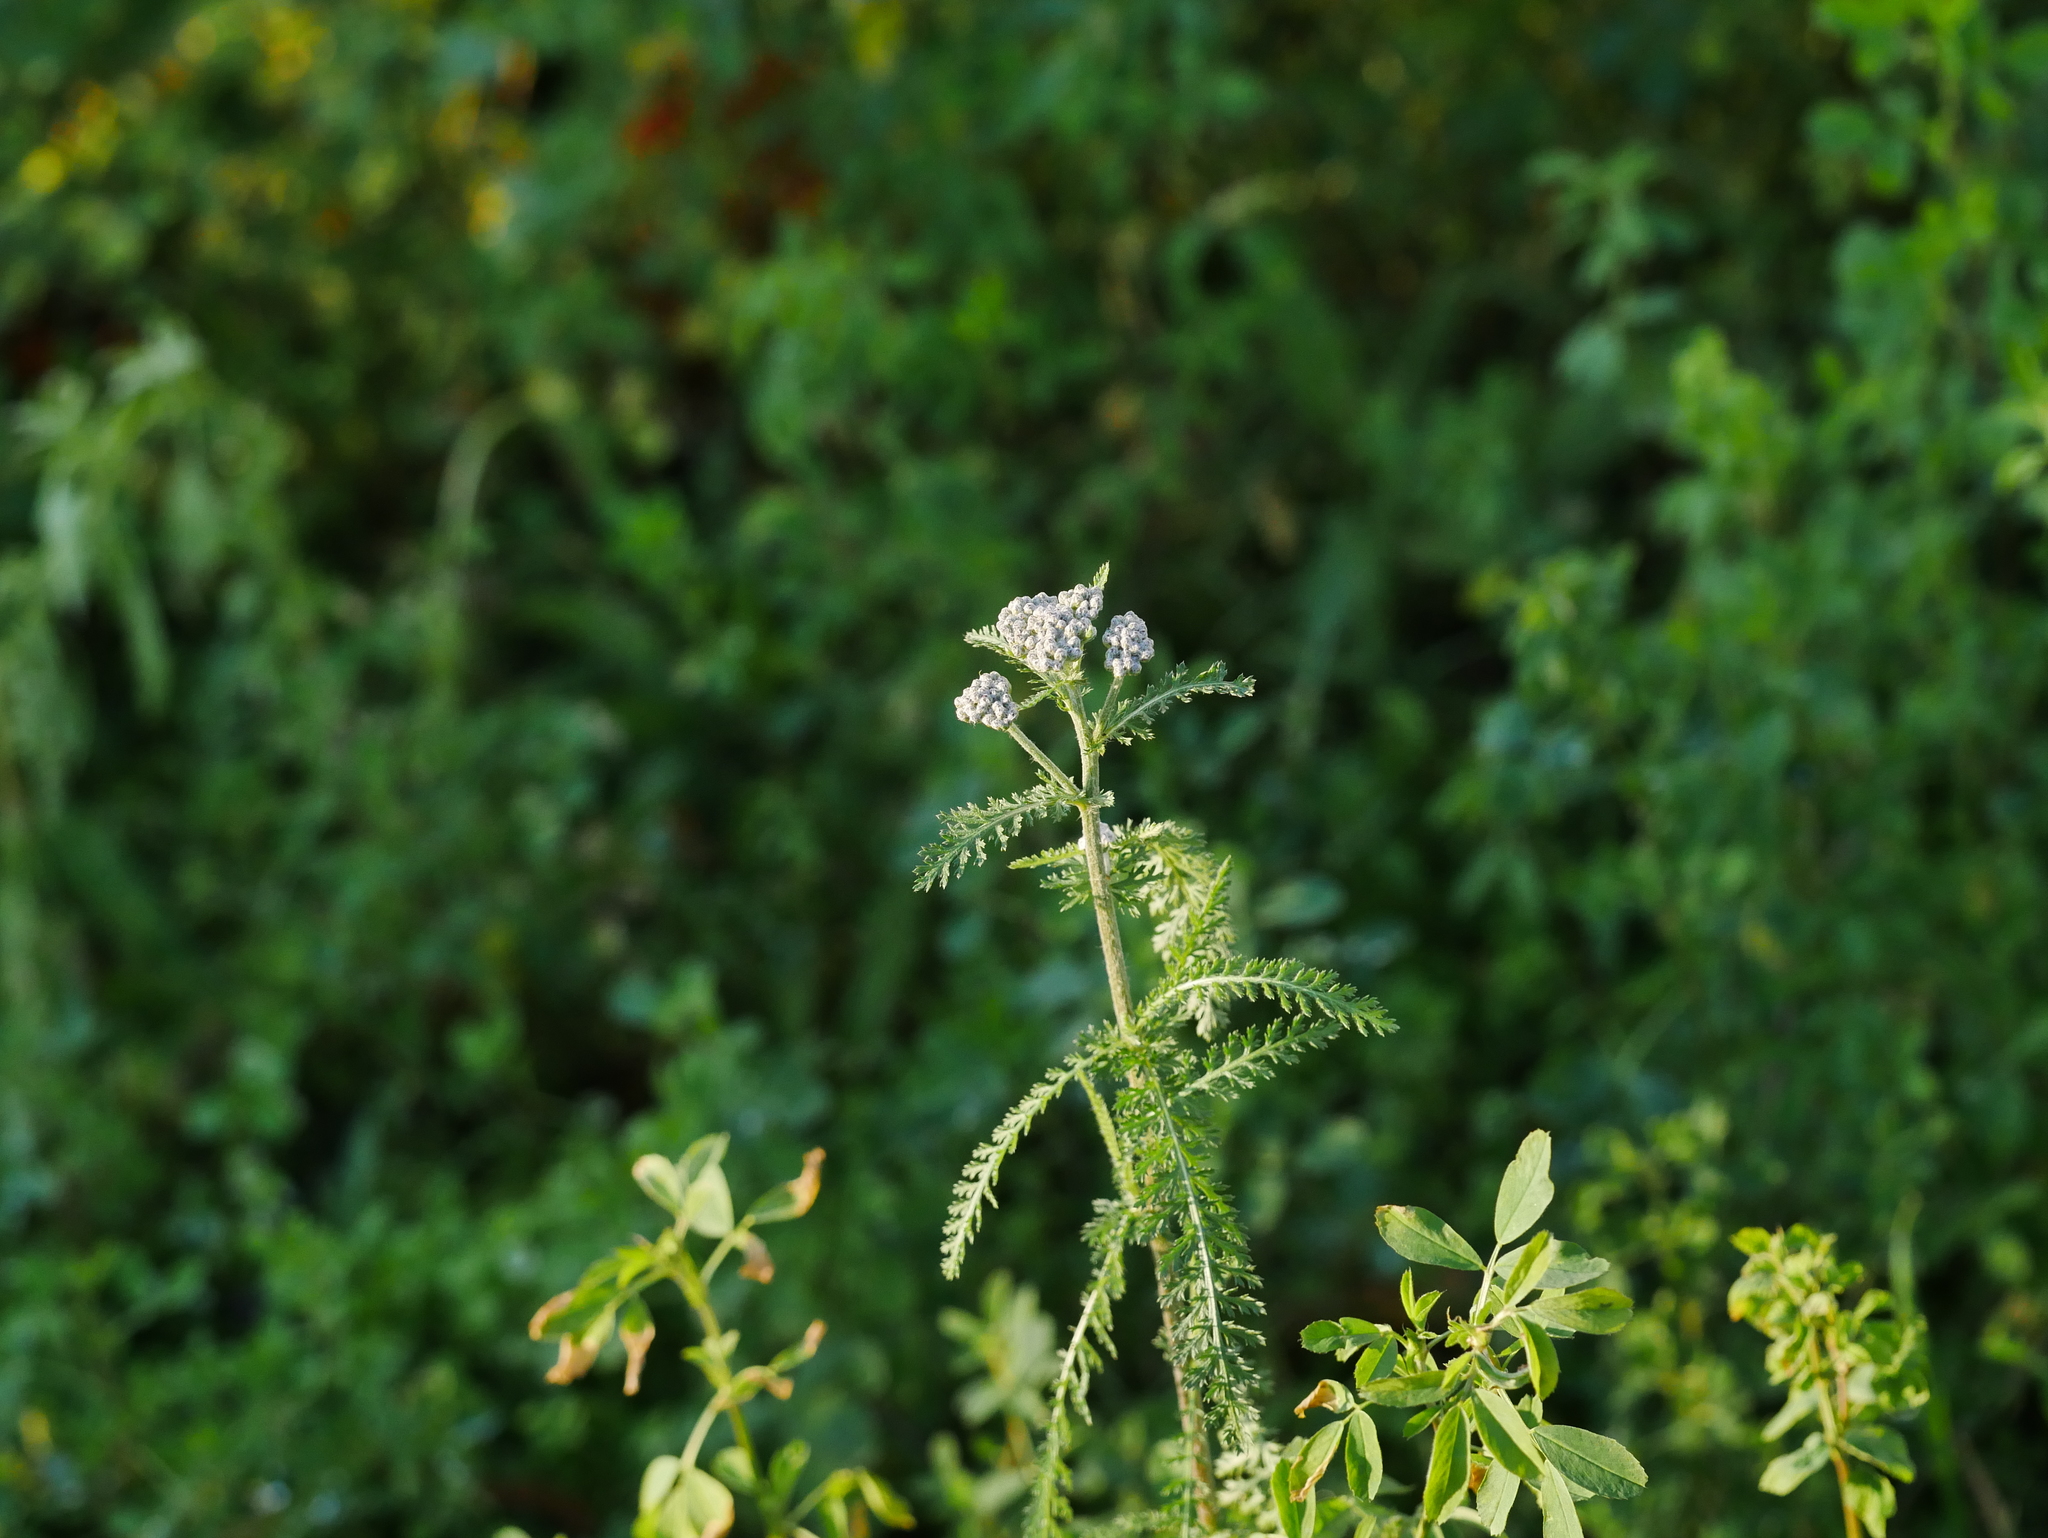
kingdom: Plantae
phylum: Tracheophyta
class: Magnoliopsida
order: Asterales
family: Asteraceae
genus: Achillea
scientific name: Achillea millefolium
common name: Yarrow
